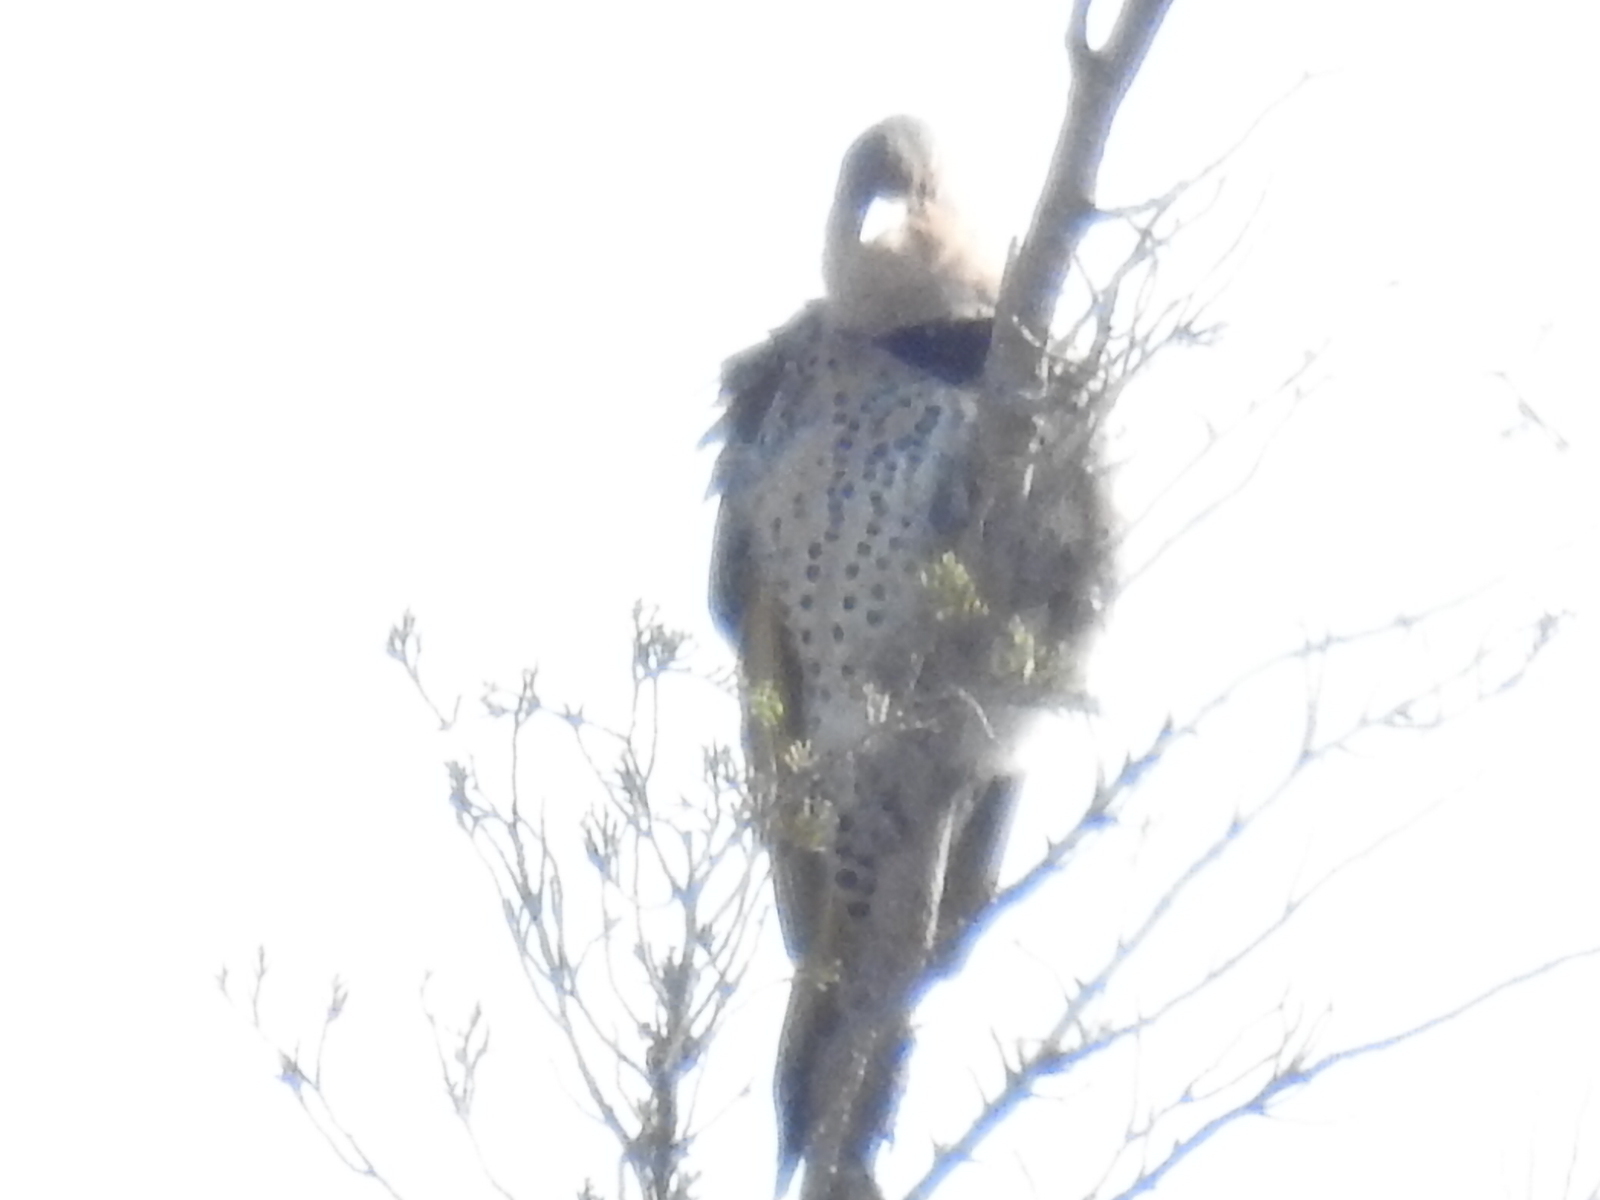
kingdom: Animalia
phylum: Chordata
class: Aves
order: Piciformes
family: Picidae
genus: Colaptes
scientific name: Colaptes auratus
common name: Northern flicker
